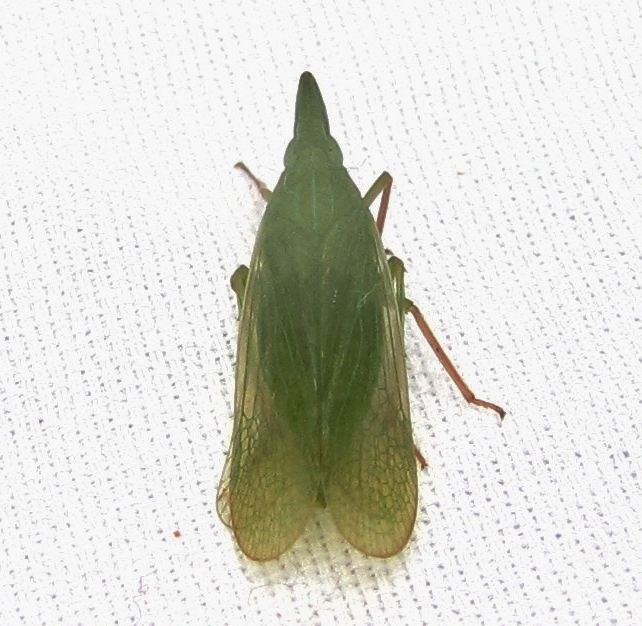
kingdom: Animalia
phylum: Arthropoda
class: Insecta
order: Hemiptera
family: Dictyopharidae
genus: Rhynchomitra
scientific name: Rhynchomitra recurva
